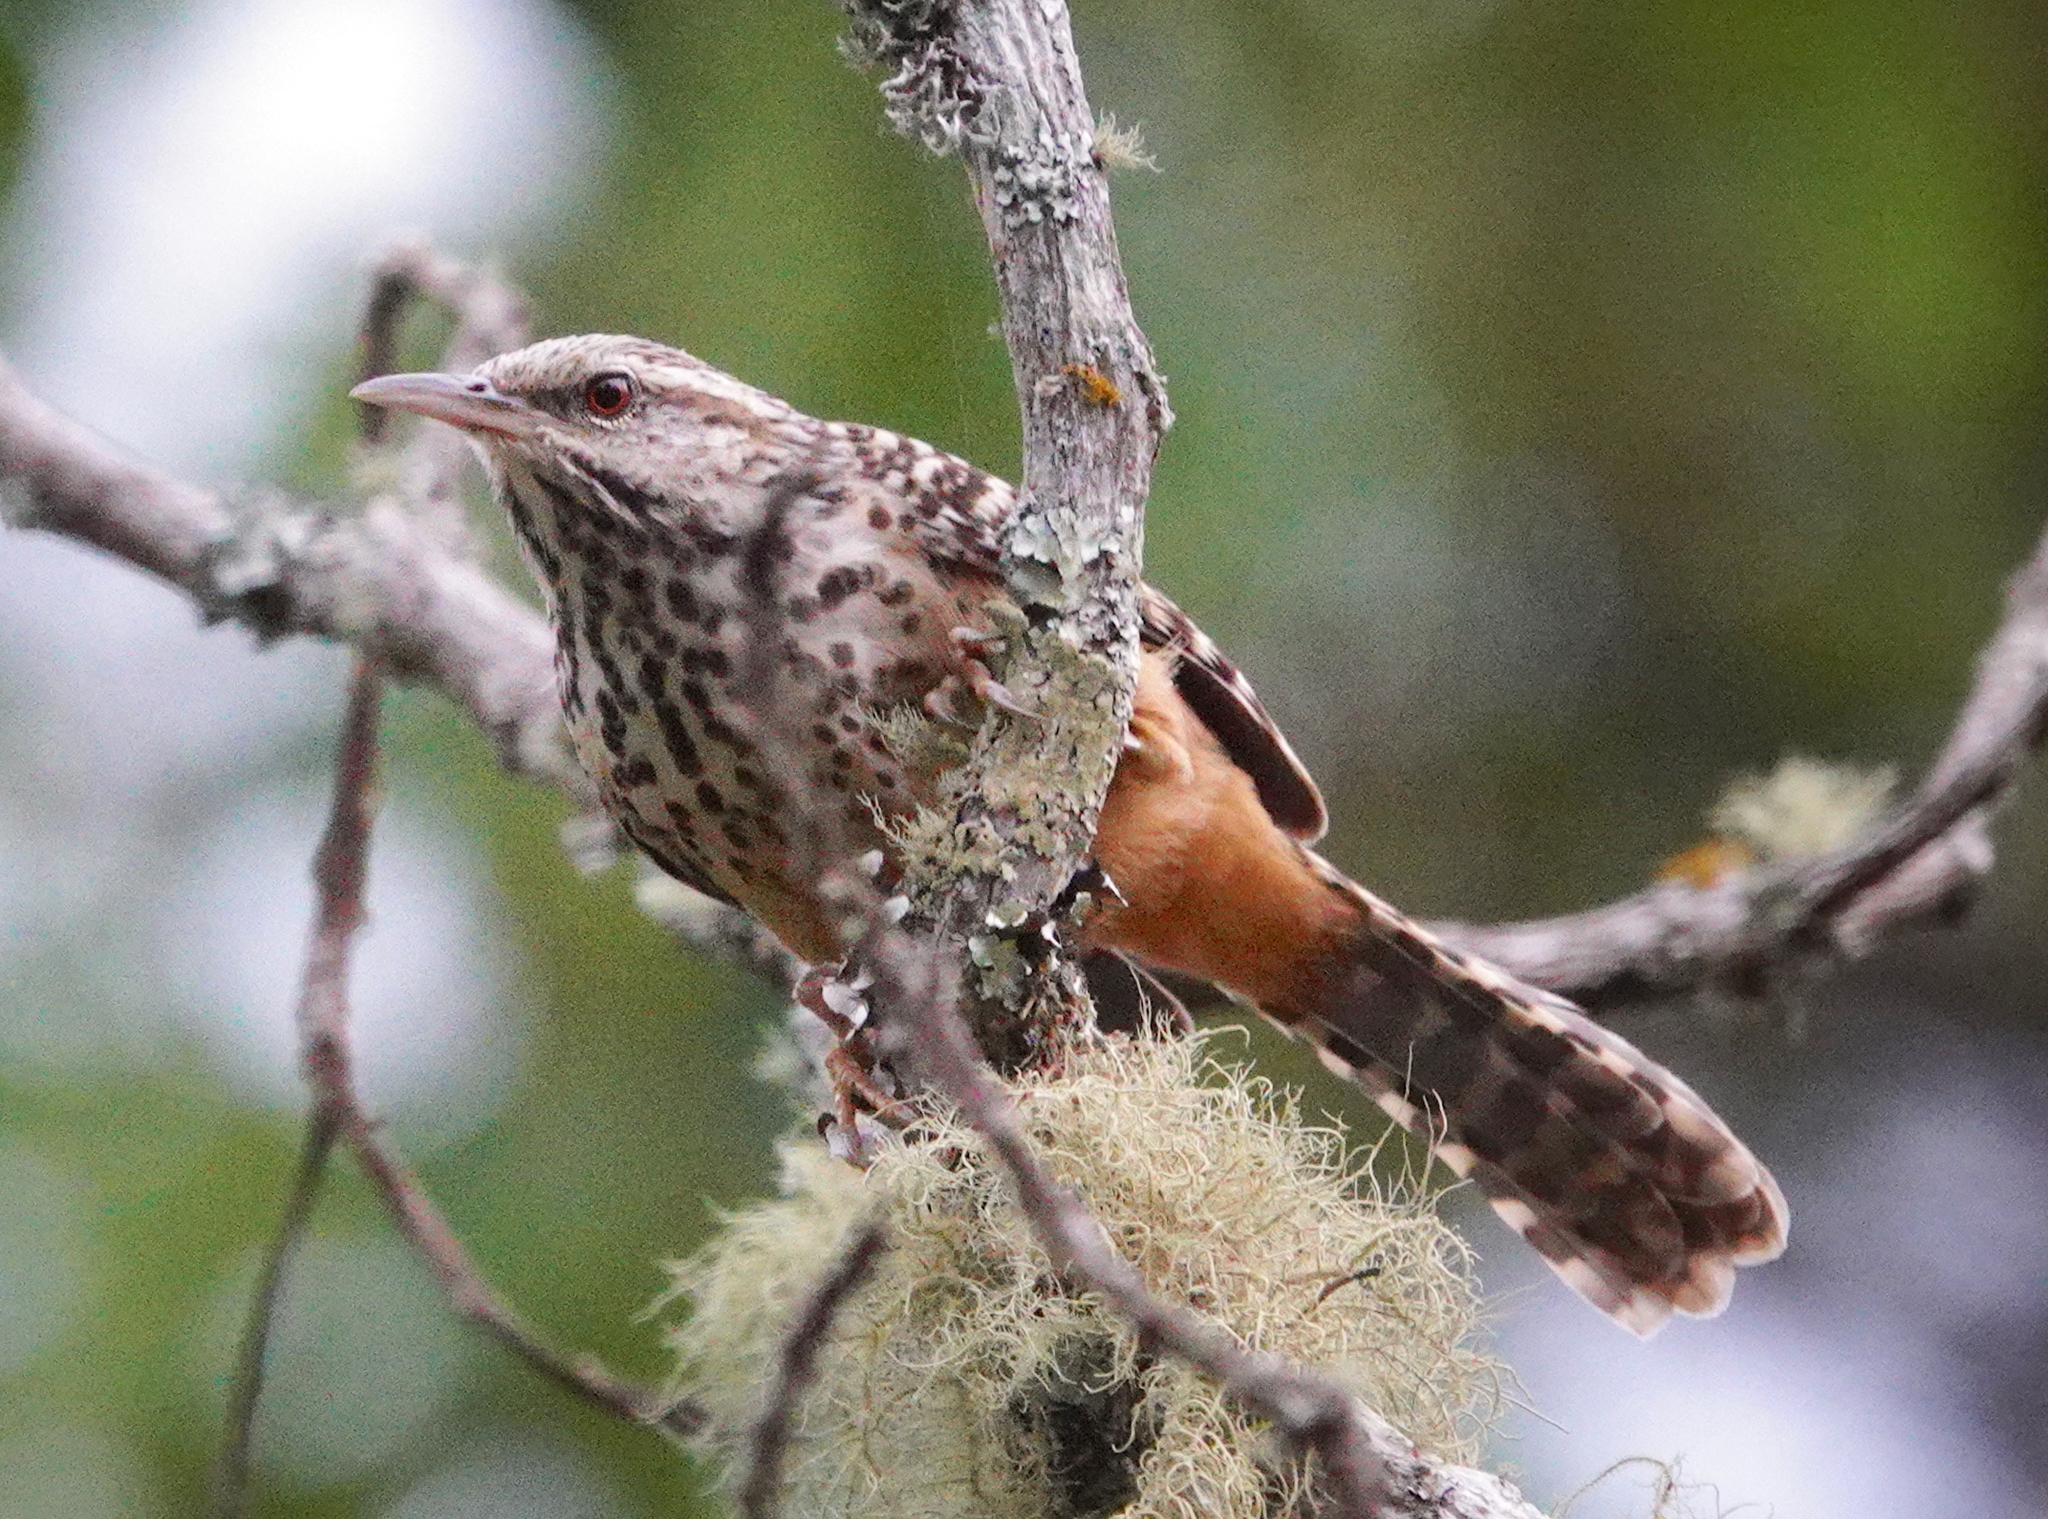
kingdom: Animalia
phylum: Chordata
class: Aves
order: Passeriformes
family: Troglodytidae
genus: Campylorhynchus
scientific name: Campylorhynchus zonatus
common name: Band-backed wren
